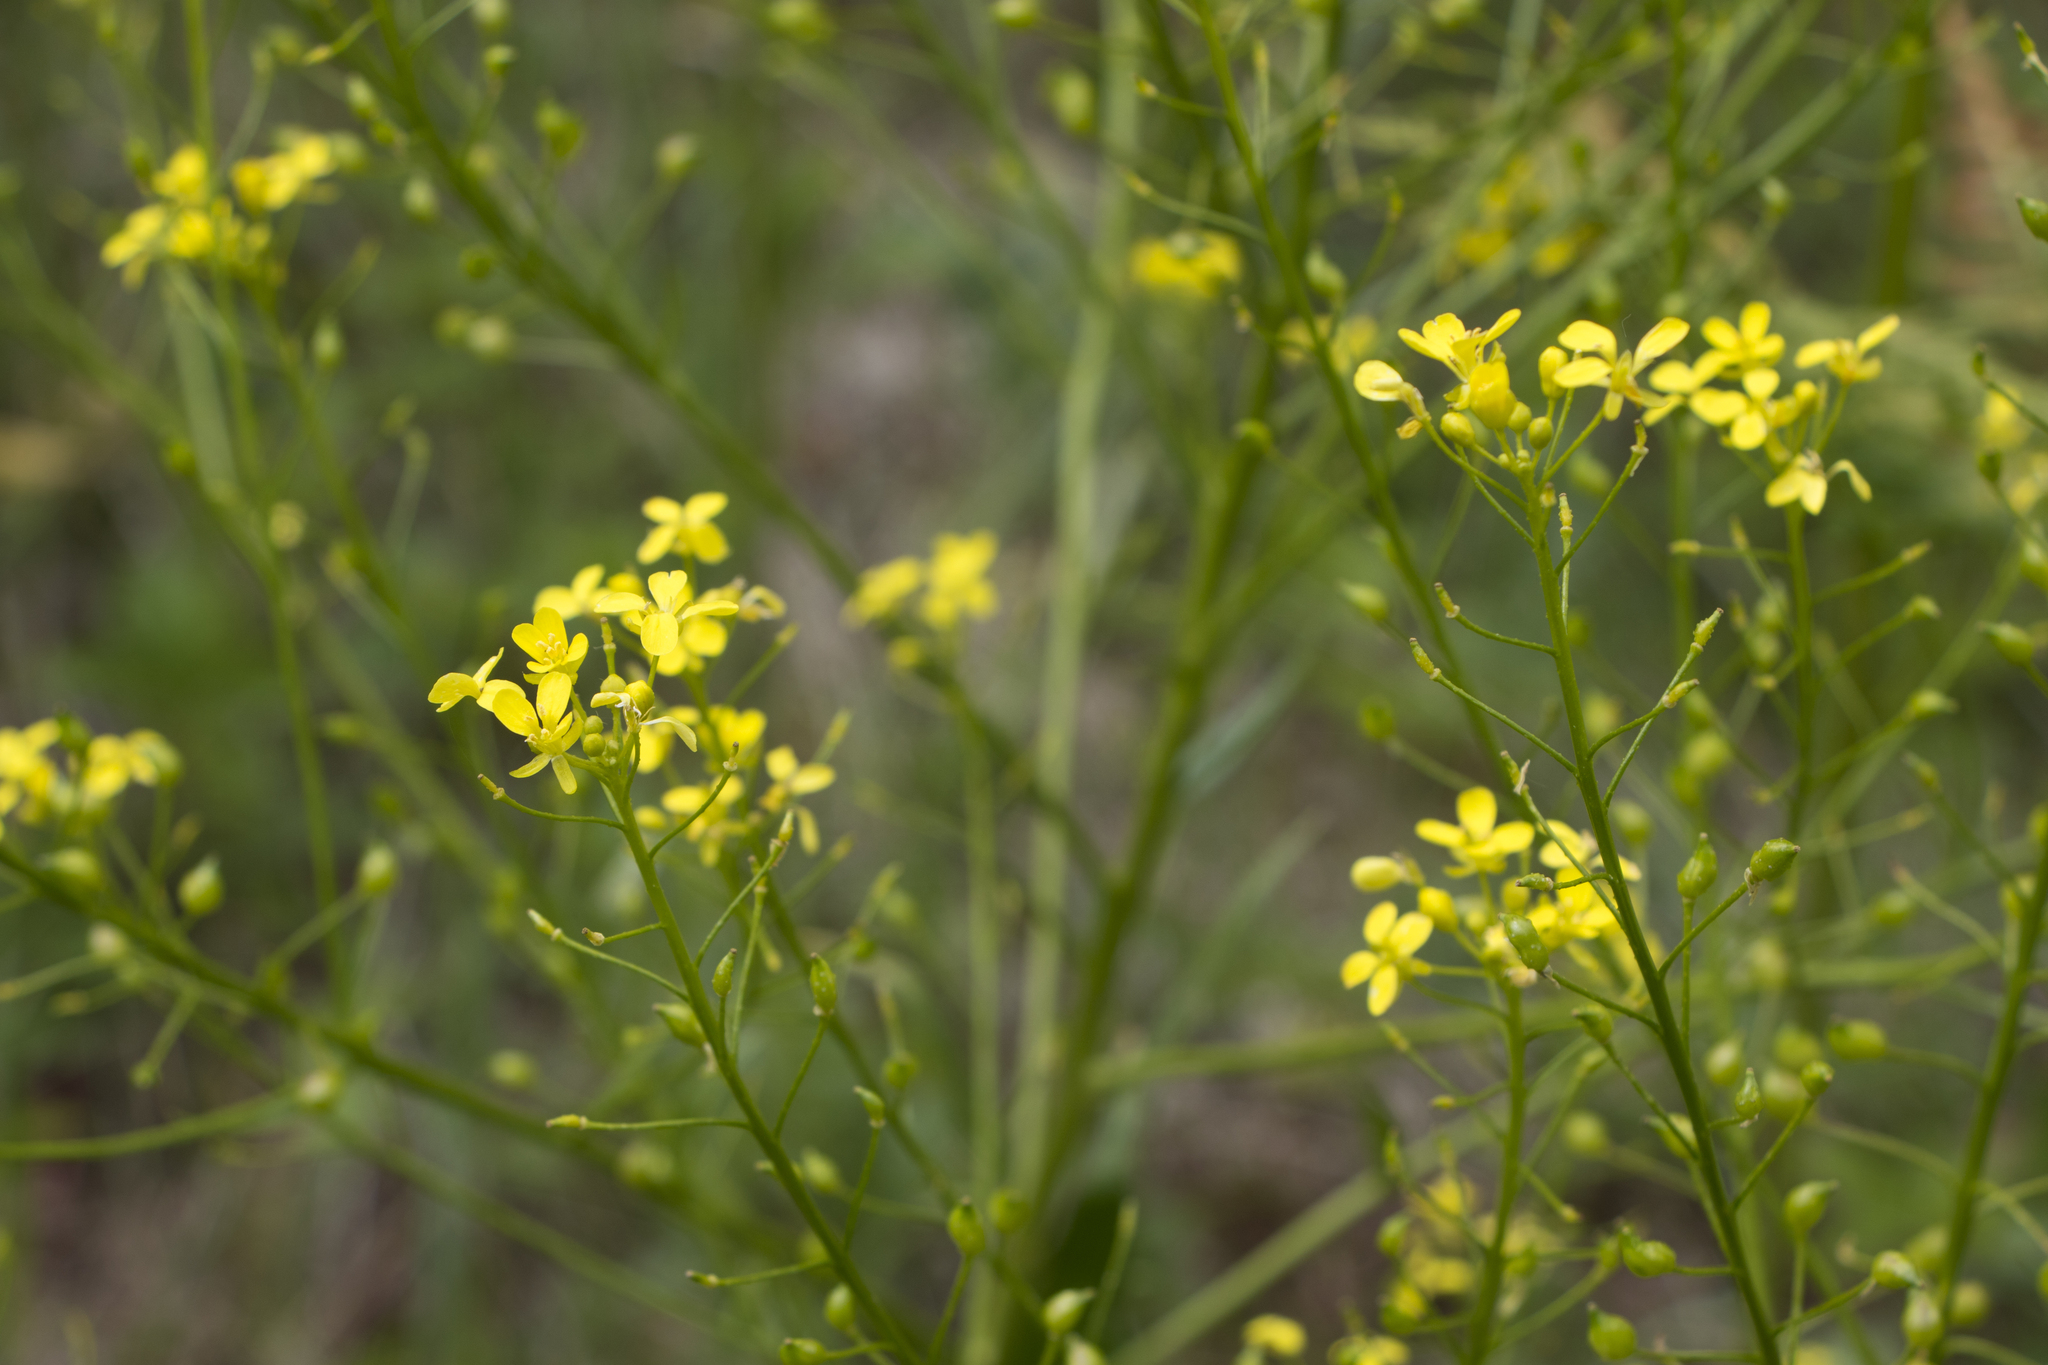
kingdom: Plantae
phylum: Tracheophyta
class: Magnoliopsida
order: Brassicales
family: Brassicaceae
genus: Bunias
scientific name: Bunias orientalis
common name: Warty-cabbage
